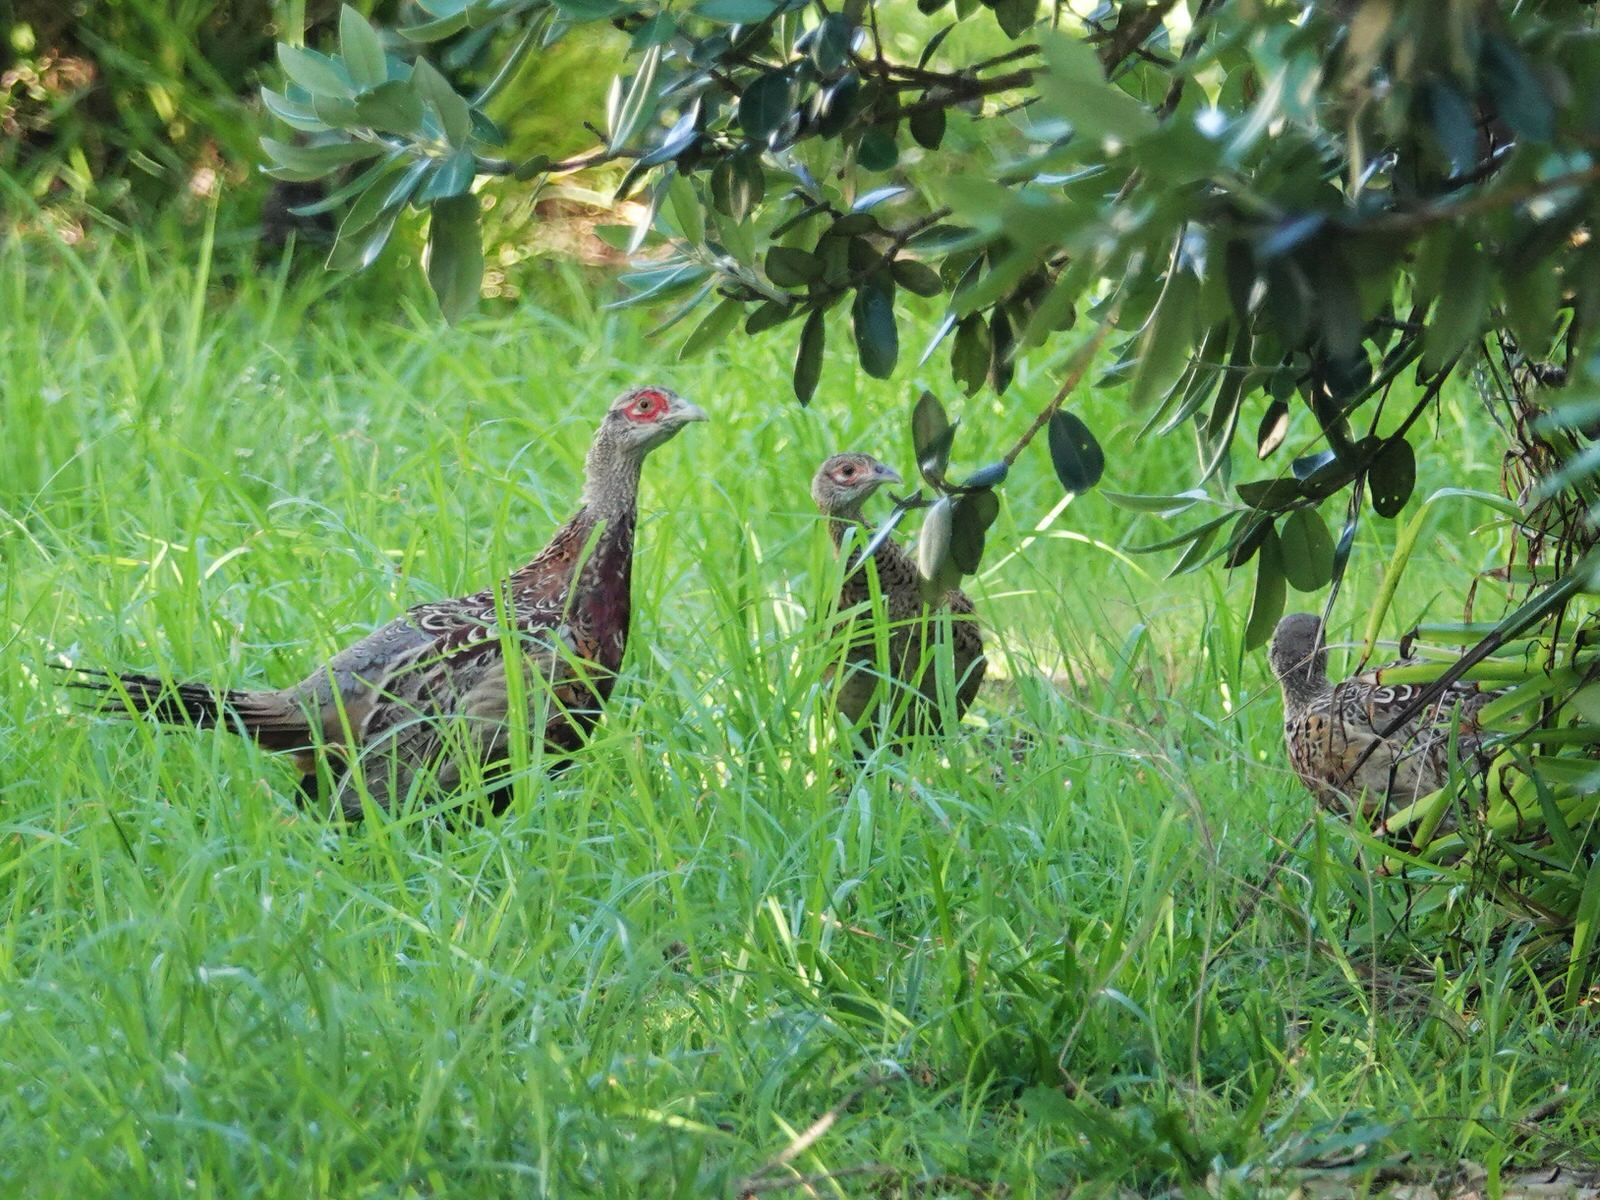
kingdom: Animalia
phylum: Chordata
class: Aves
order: Galliformes
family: Phasianidae
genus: Phasianus
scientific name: Phasianus colchicus
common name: Common pheasant
